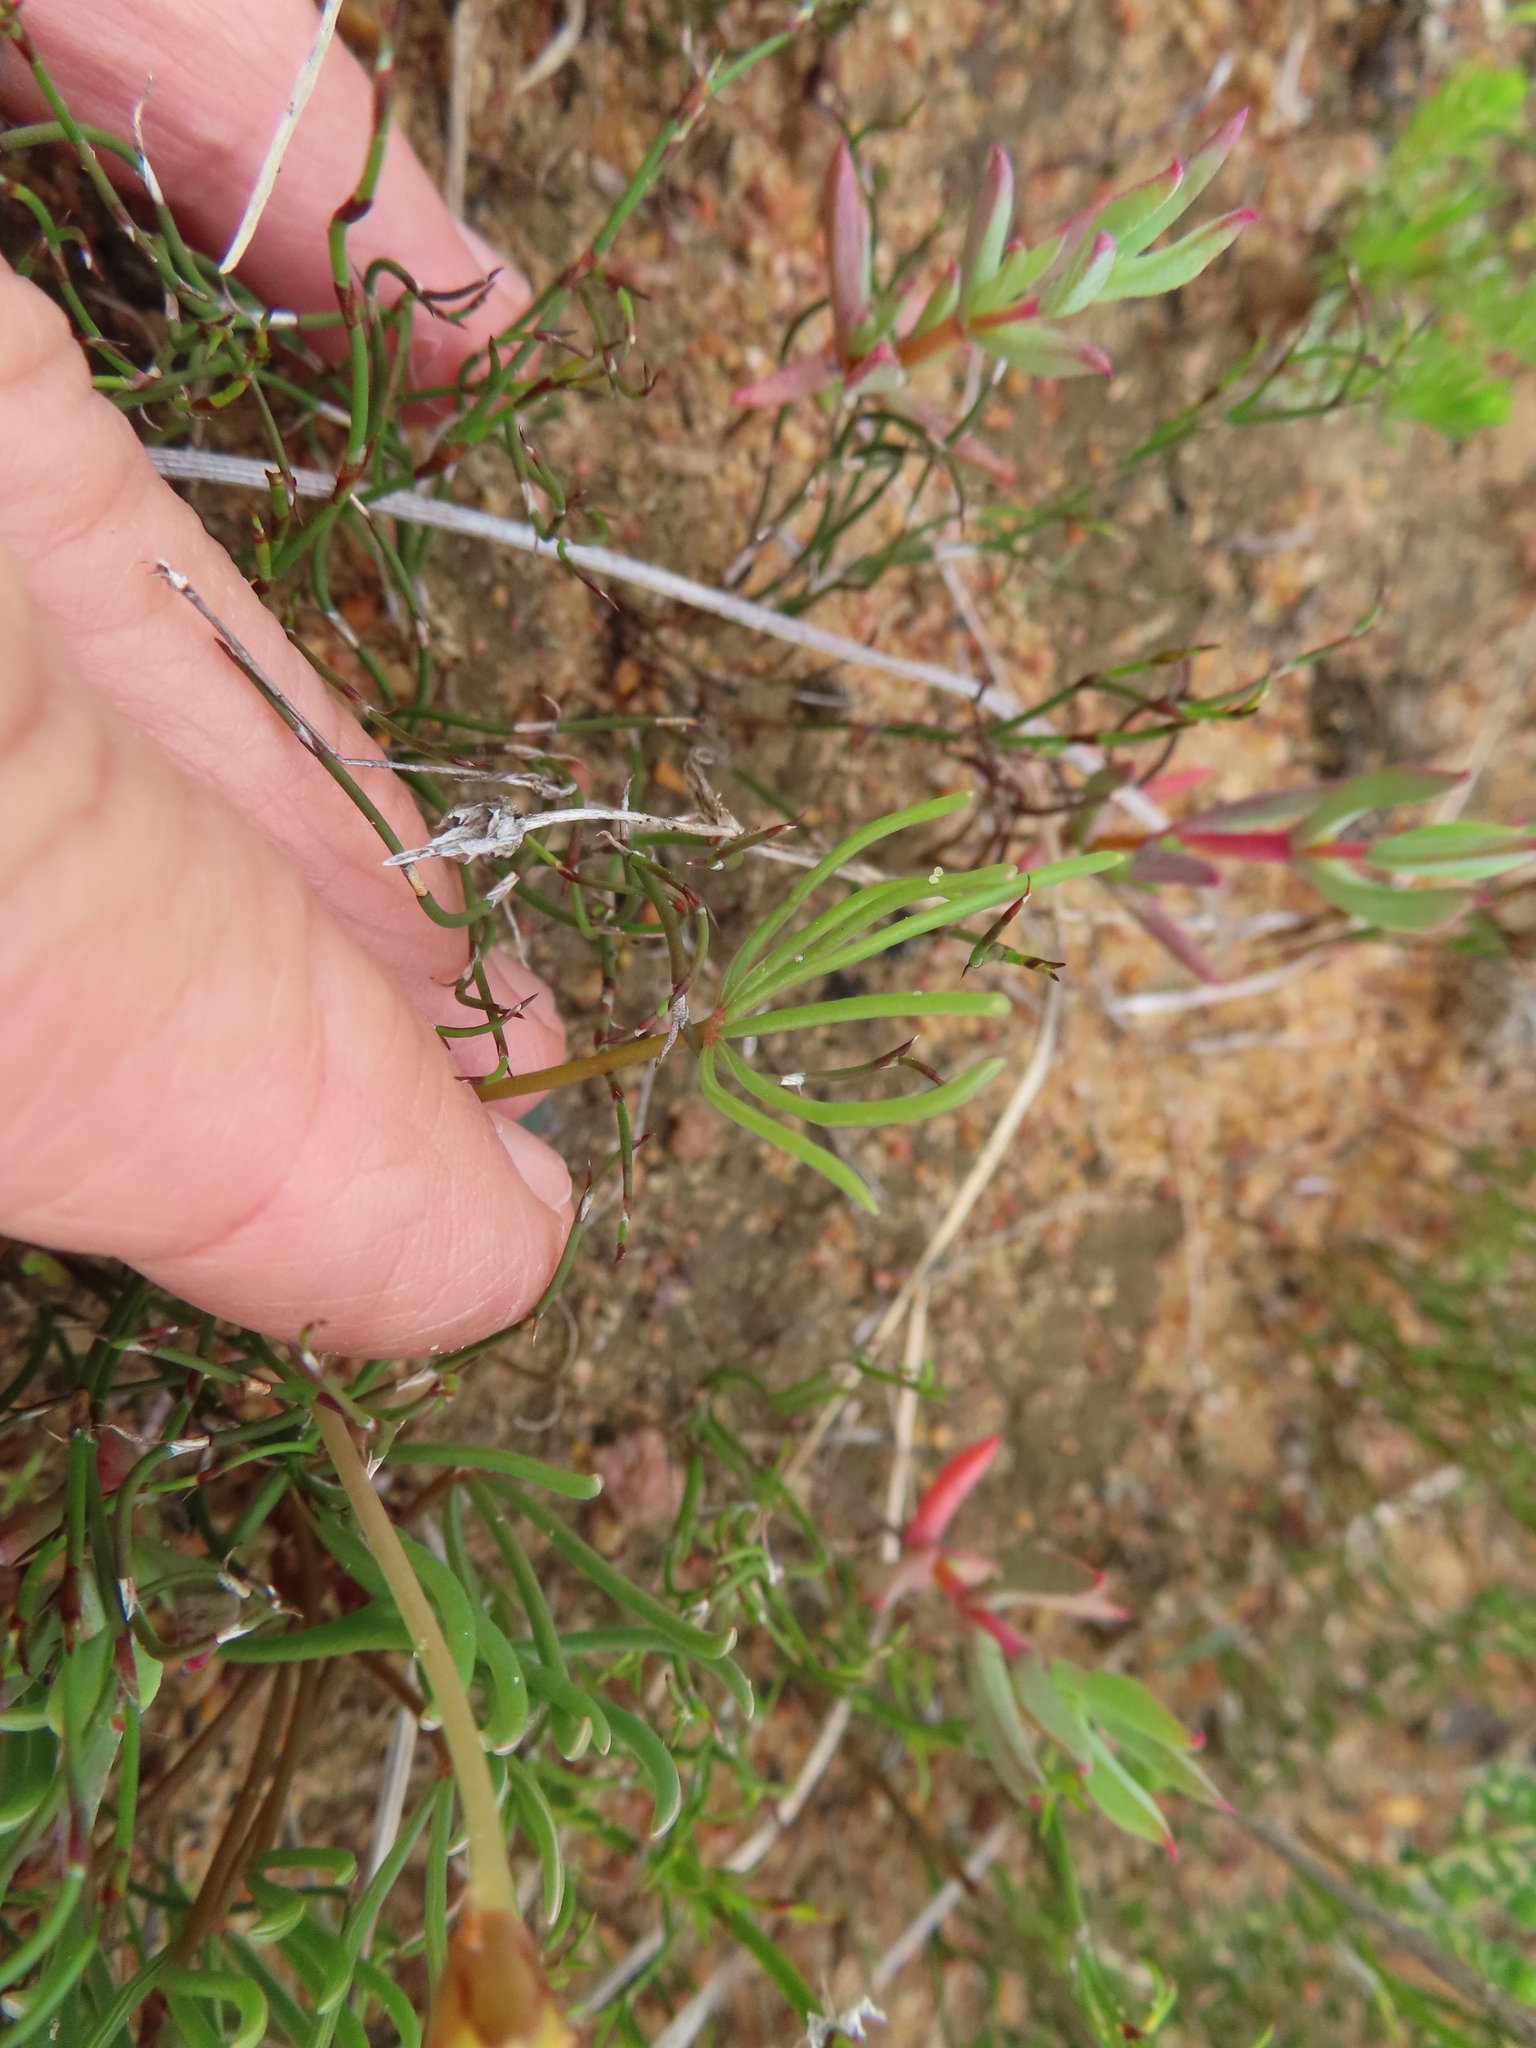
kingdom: Plantae
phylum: Tracheophyta
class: Magnoliopsida
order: Oxalidales
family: Oxalidaceae
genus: Oxalis
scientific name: Oxalis flava
